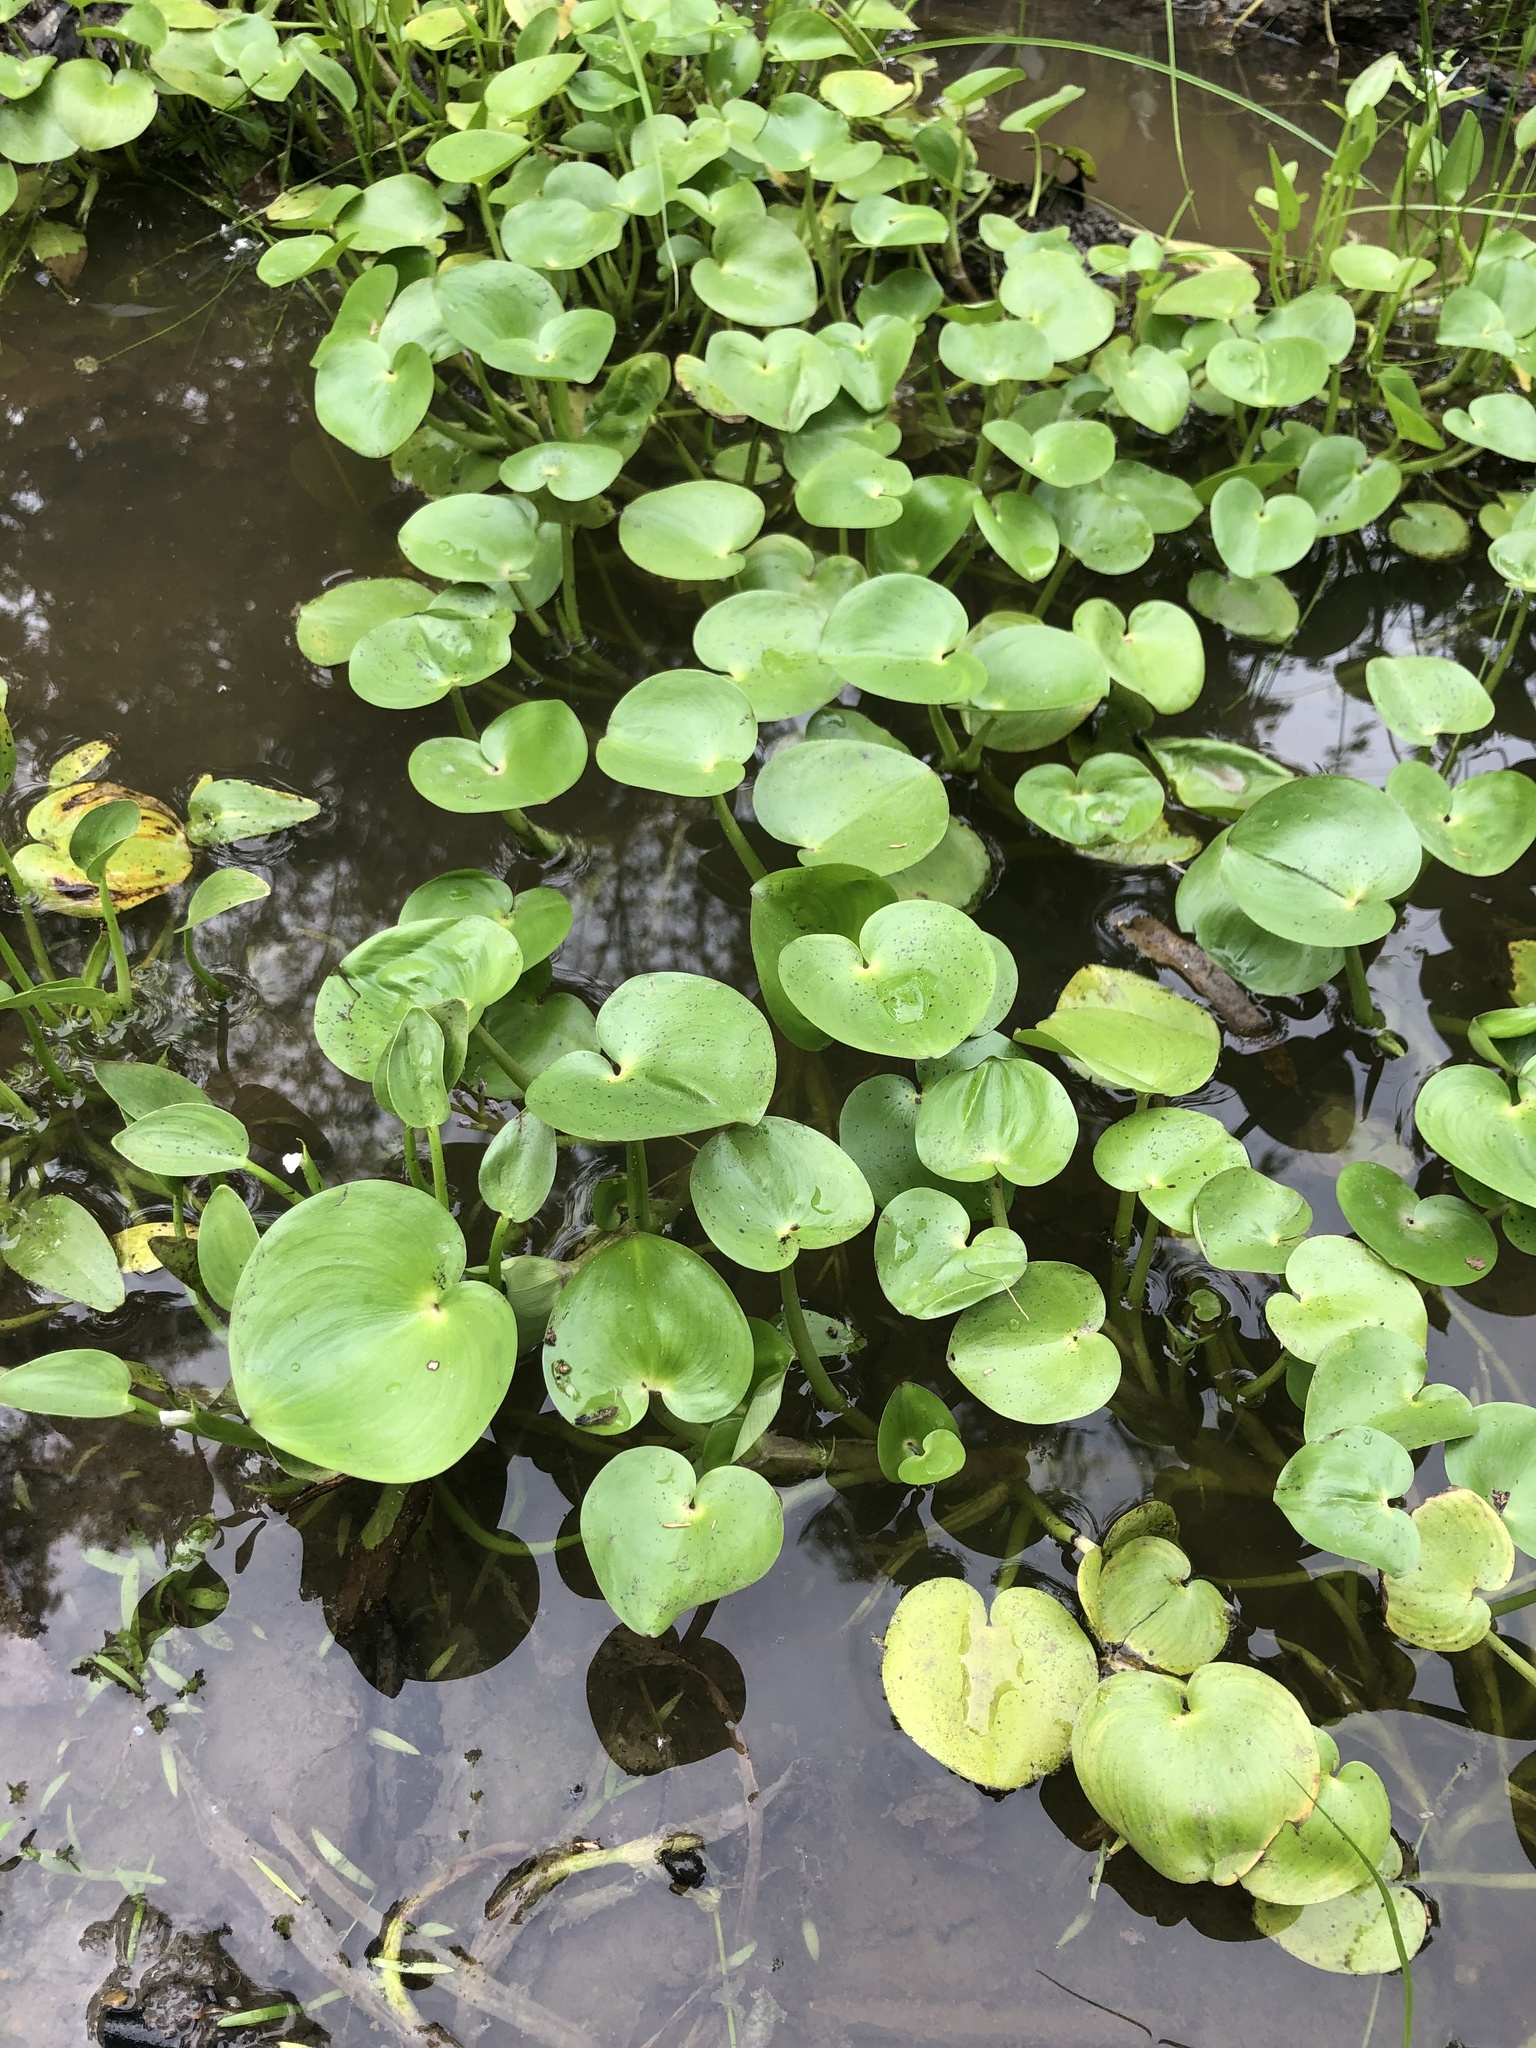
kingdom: Plantae
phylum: Tracheophyta
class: Liliopsida
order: Commelinales
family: Pontederiaceae
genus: Heteranthera
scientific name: Heteranthera reniformis
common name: Kidneyleaf mudplantain
